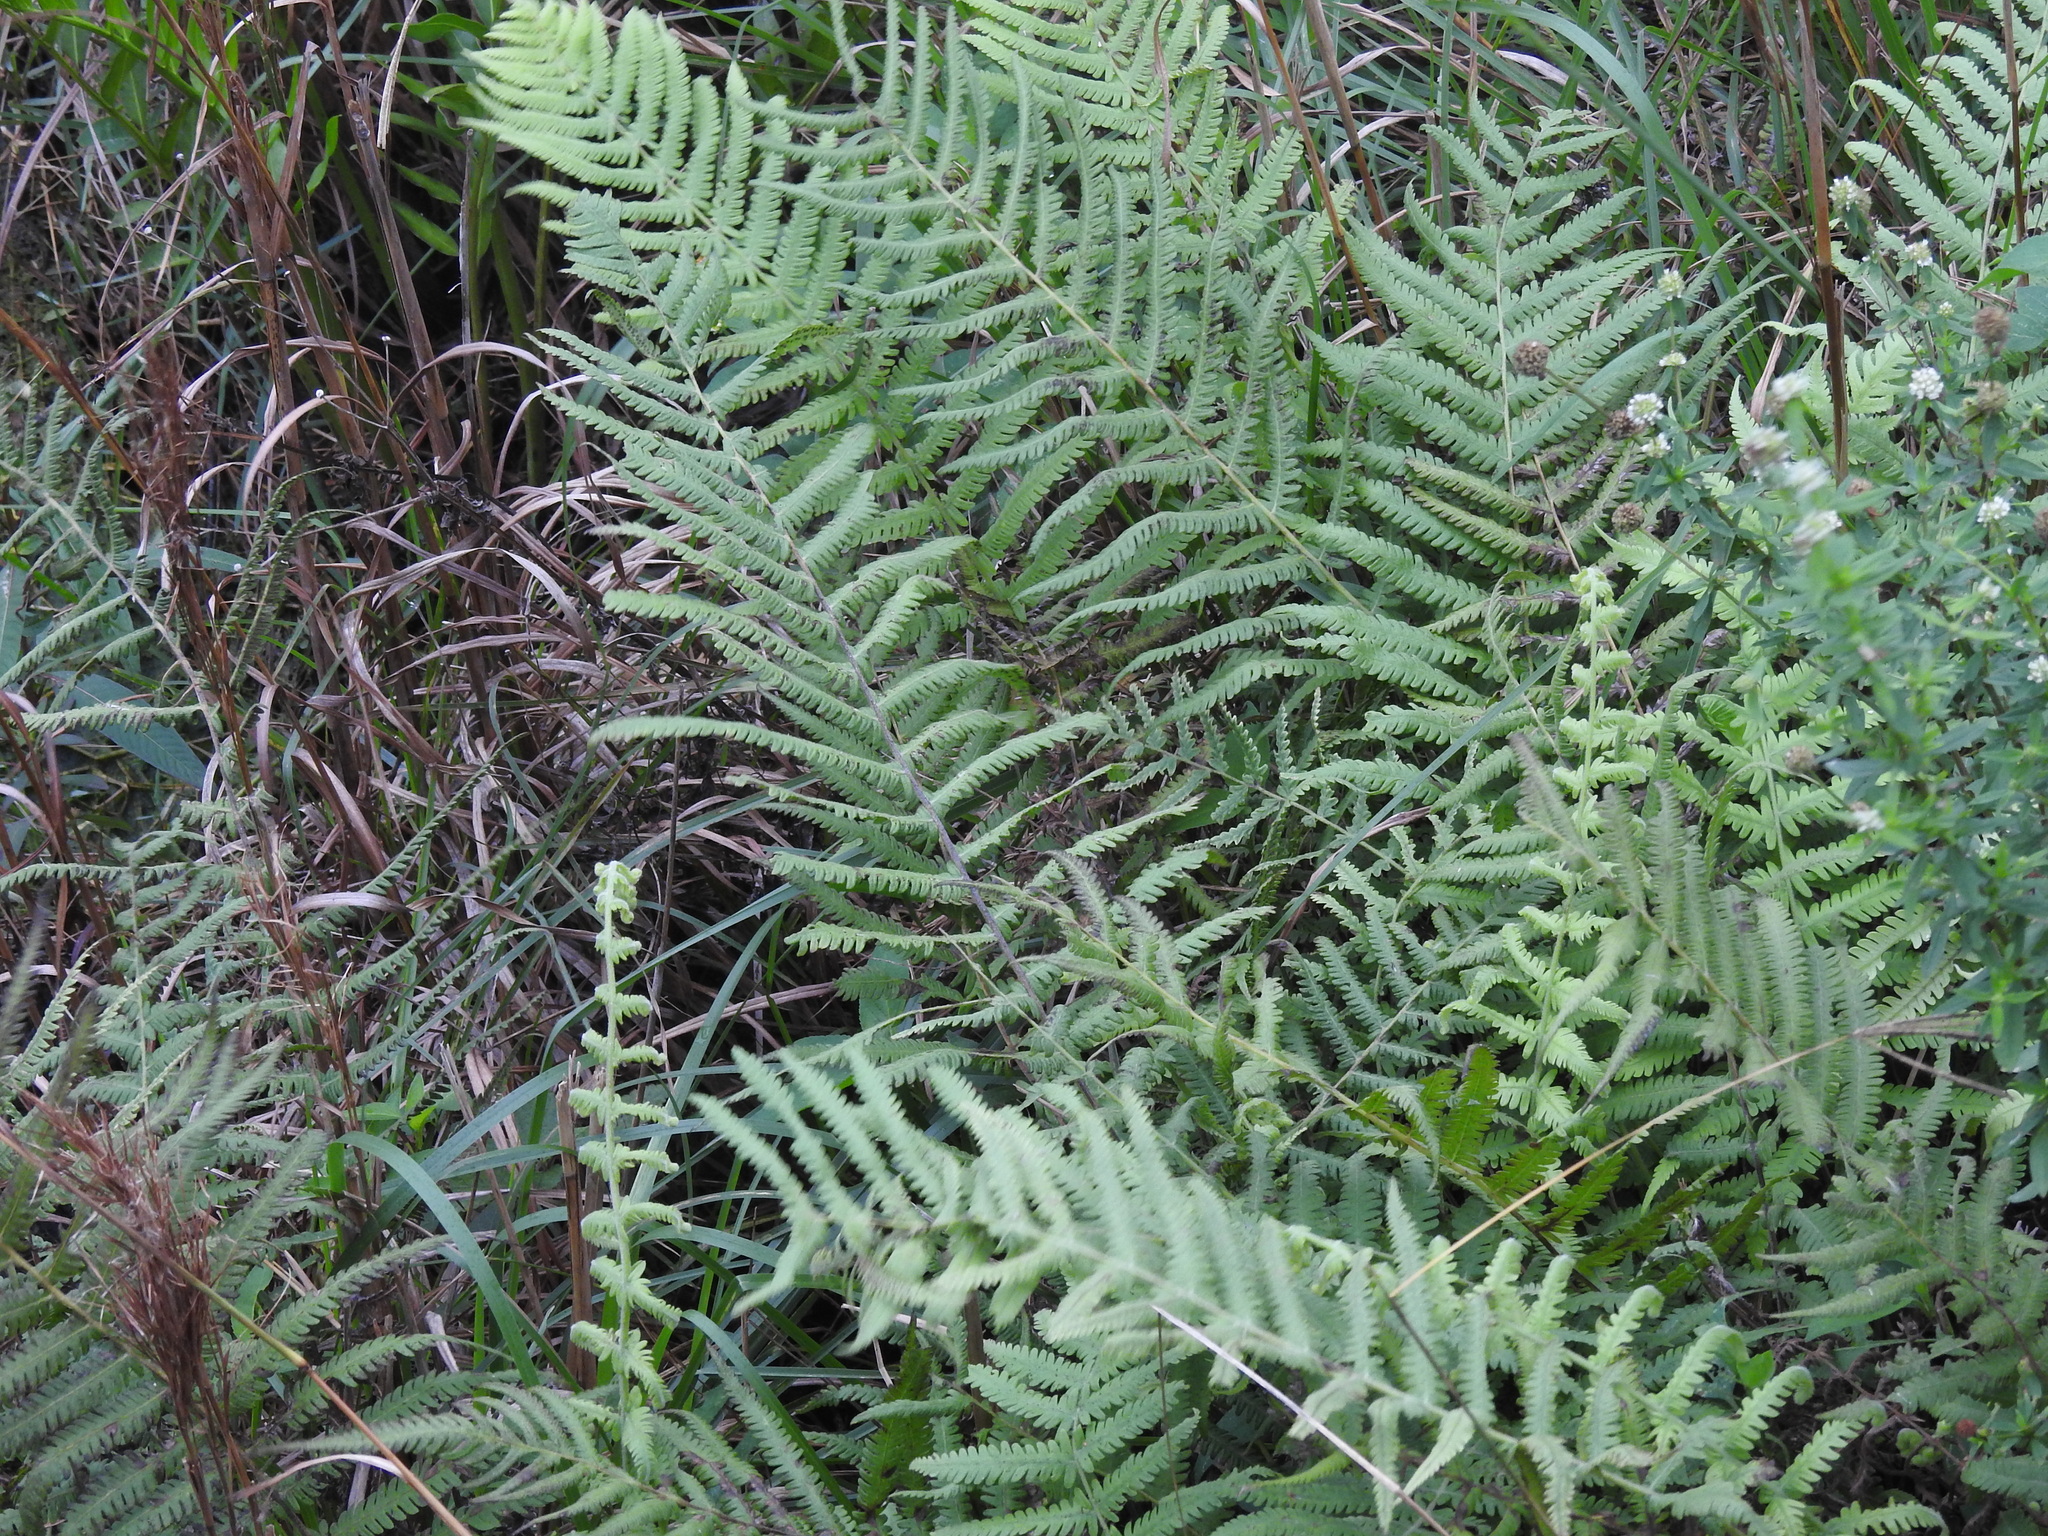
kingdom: Plantae
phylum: Tracheophyta
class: Polypodiopsida
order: Polypodiales
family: Thelypteridaceae
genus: Pelazoneuron
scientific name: Pelazoneuron kunthii
